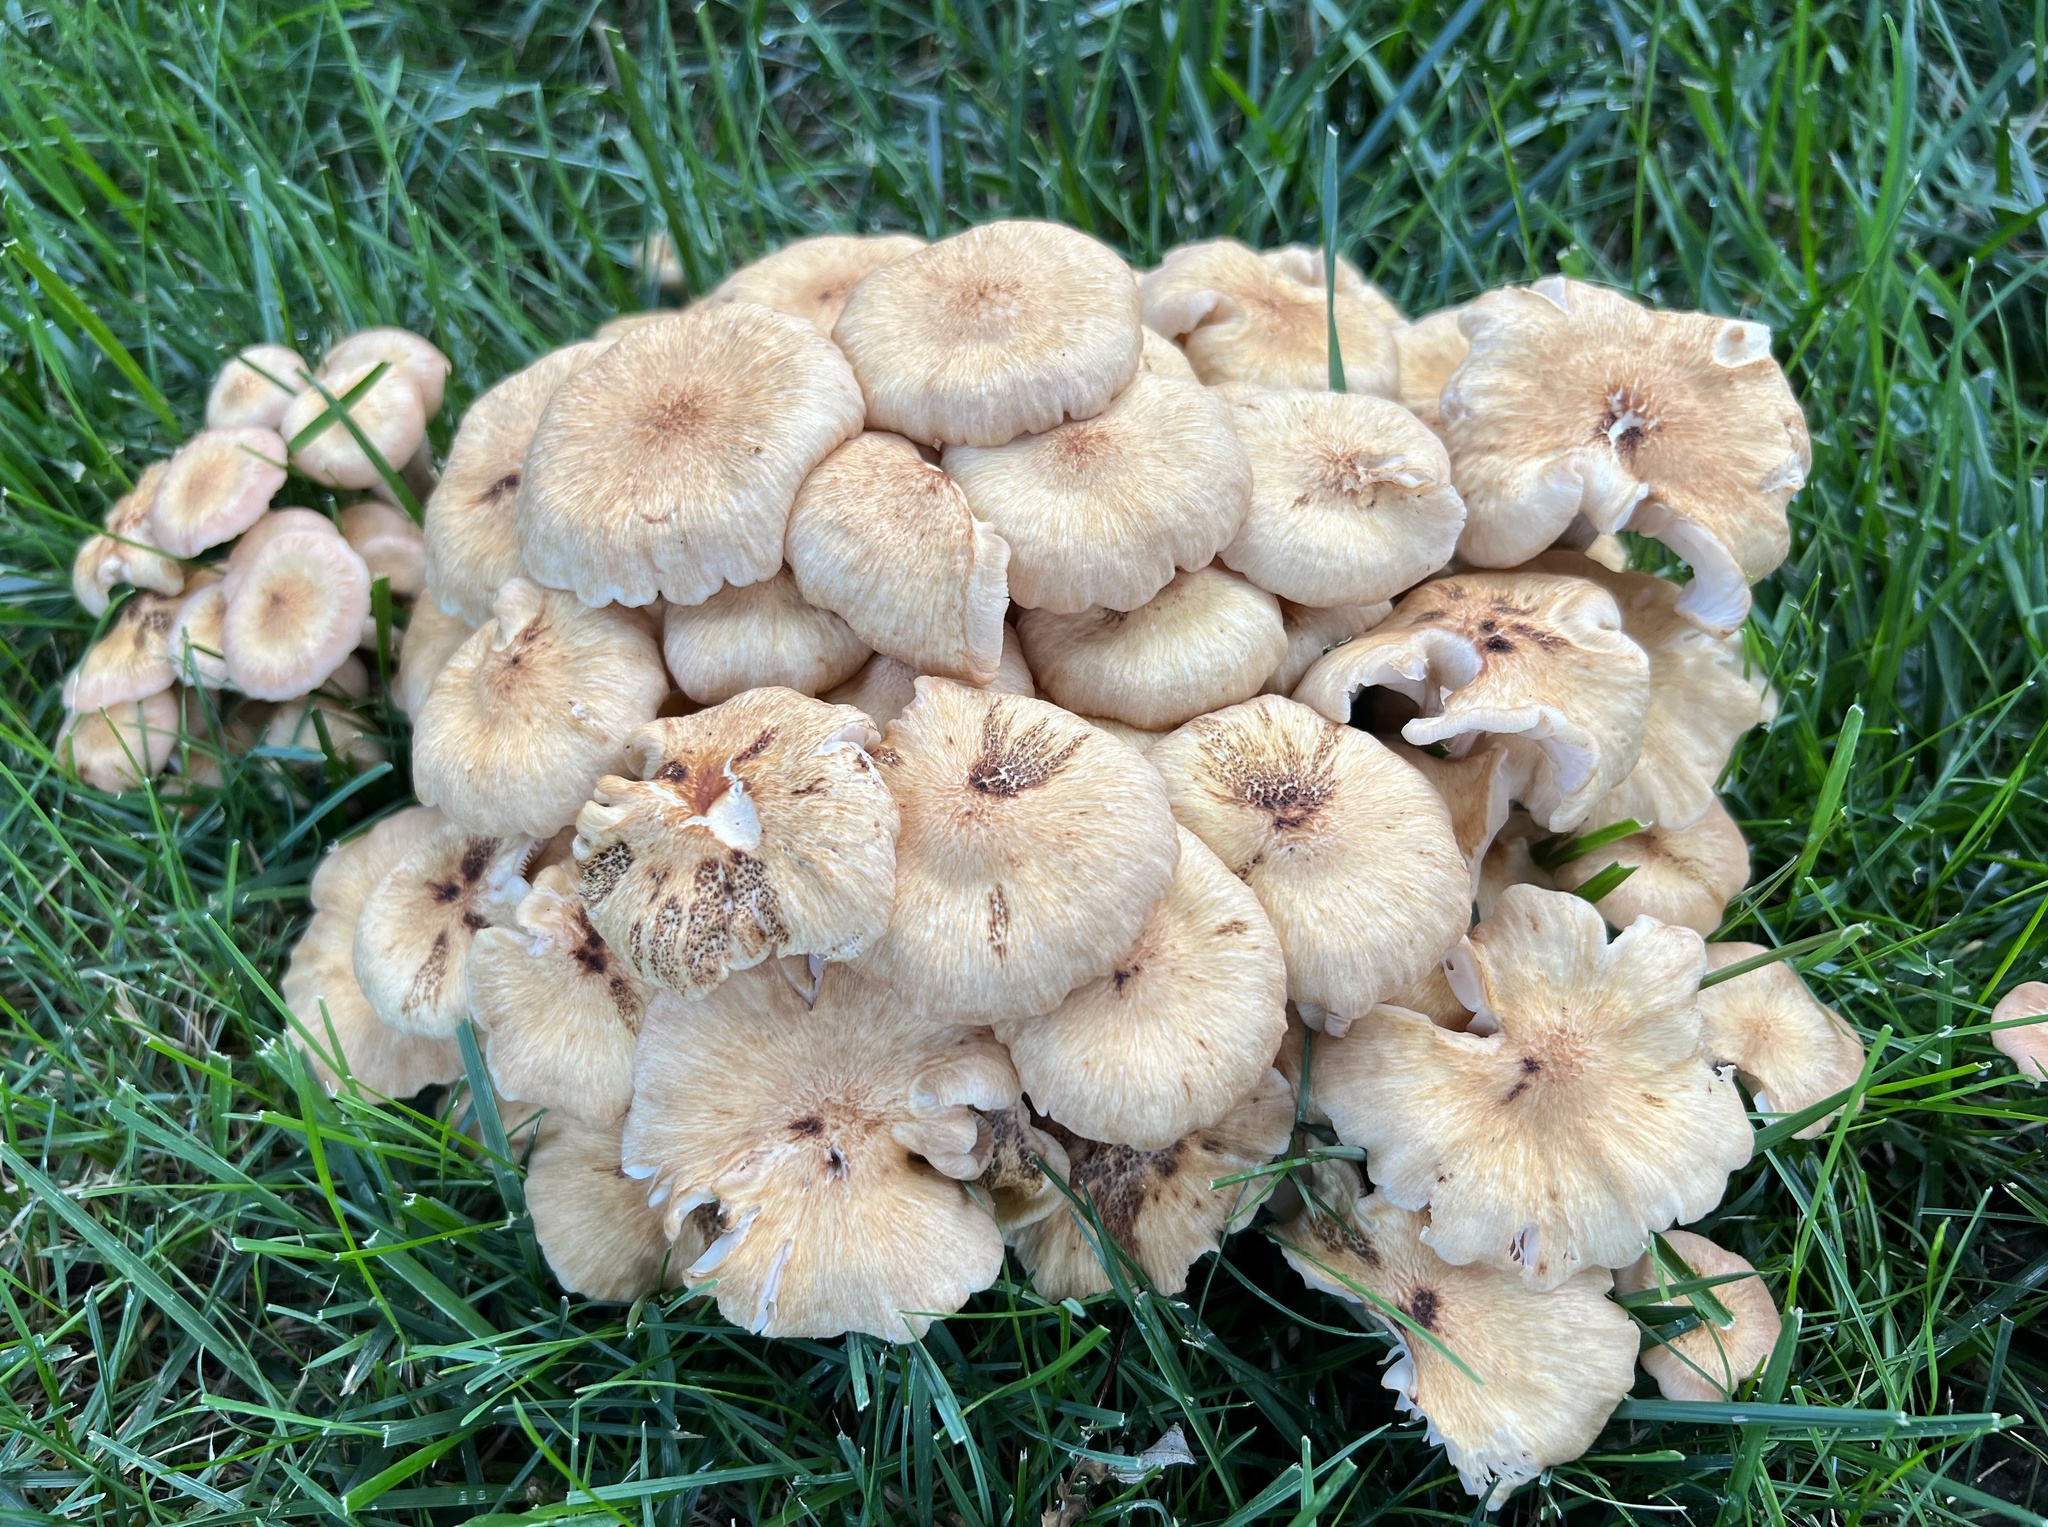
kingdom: Fungi
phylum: Basidiomycota
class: Agaricomycetes
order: Agaricales
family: Physalacriaceae
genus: Desarmillaria
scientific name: Desarmillaria caespitosa
